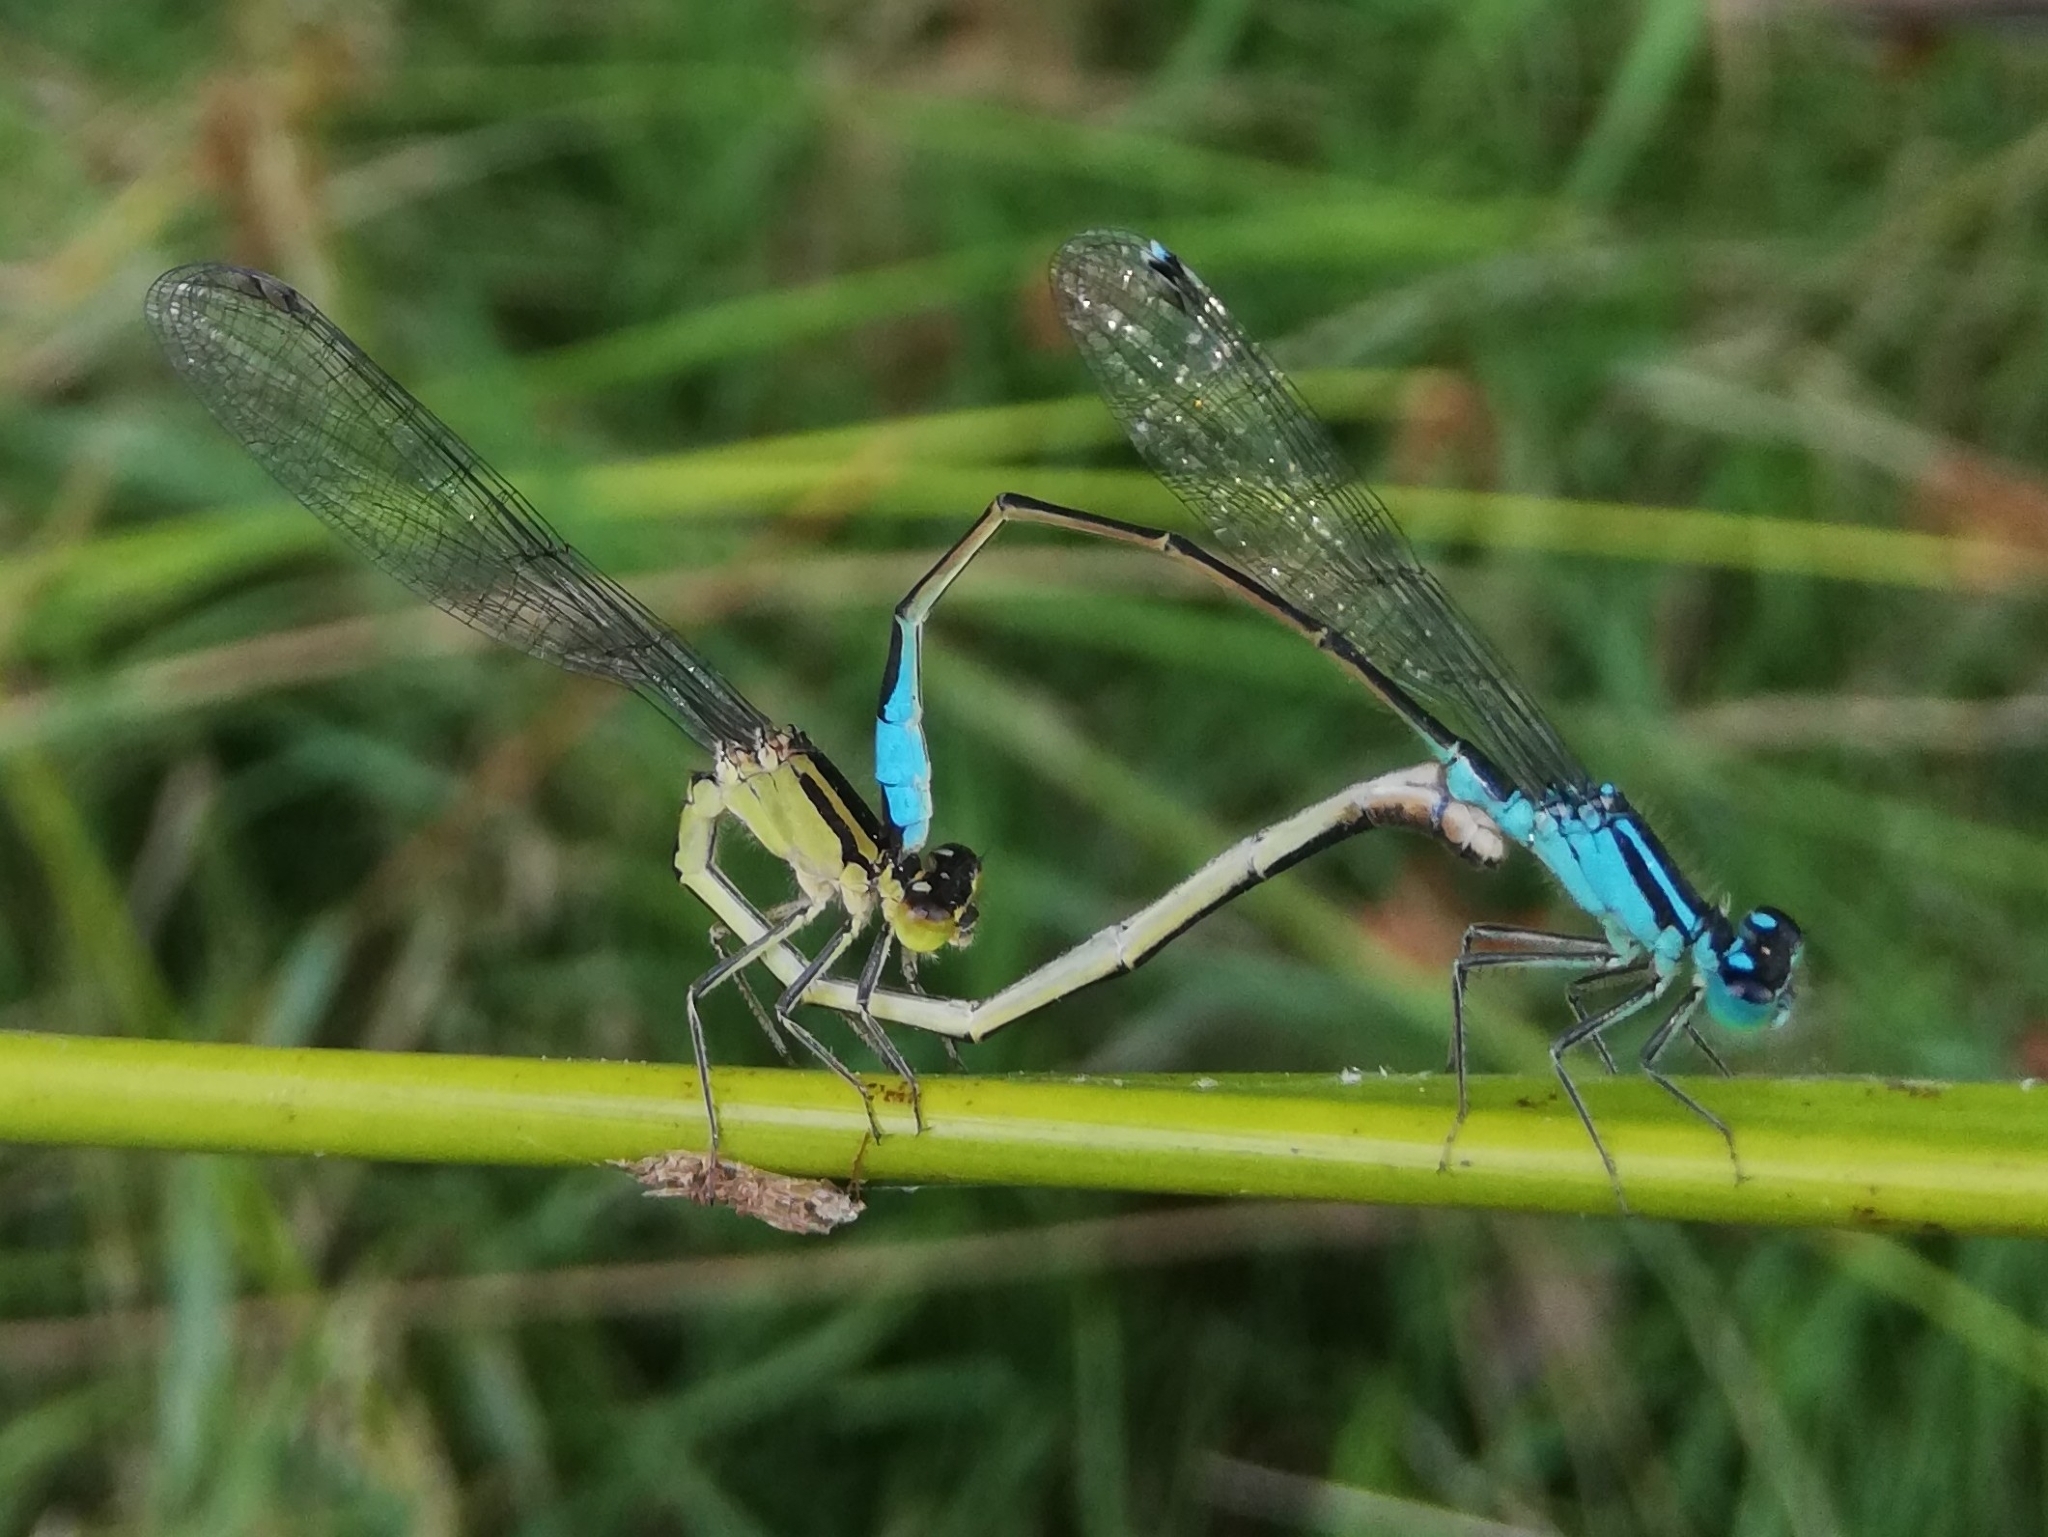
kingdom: Animalia
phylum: Arthropoda
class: Insecta
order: Odonata
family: Coenagrionidae
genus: Ischnura
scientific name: Ischnura elegans
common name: Blue-tailed damselfly
